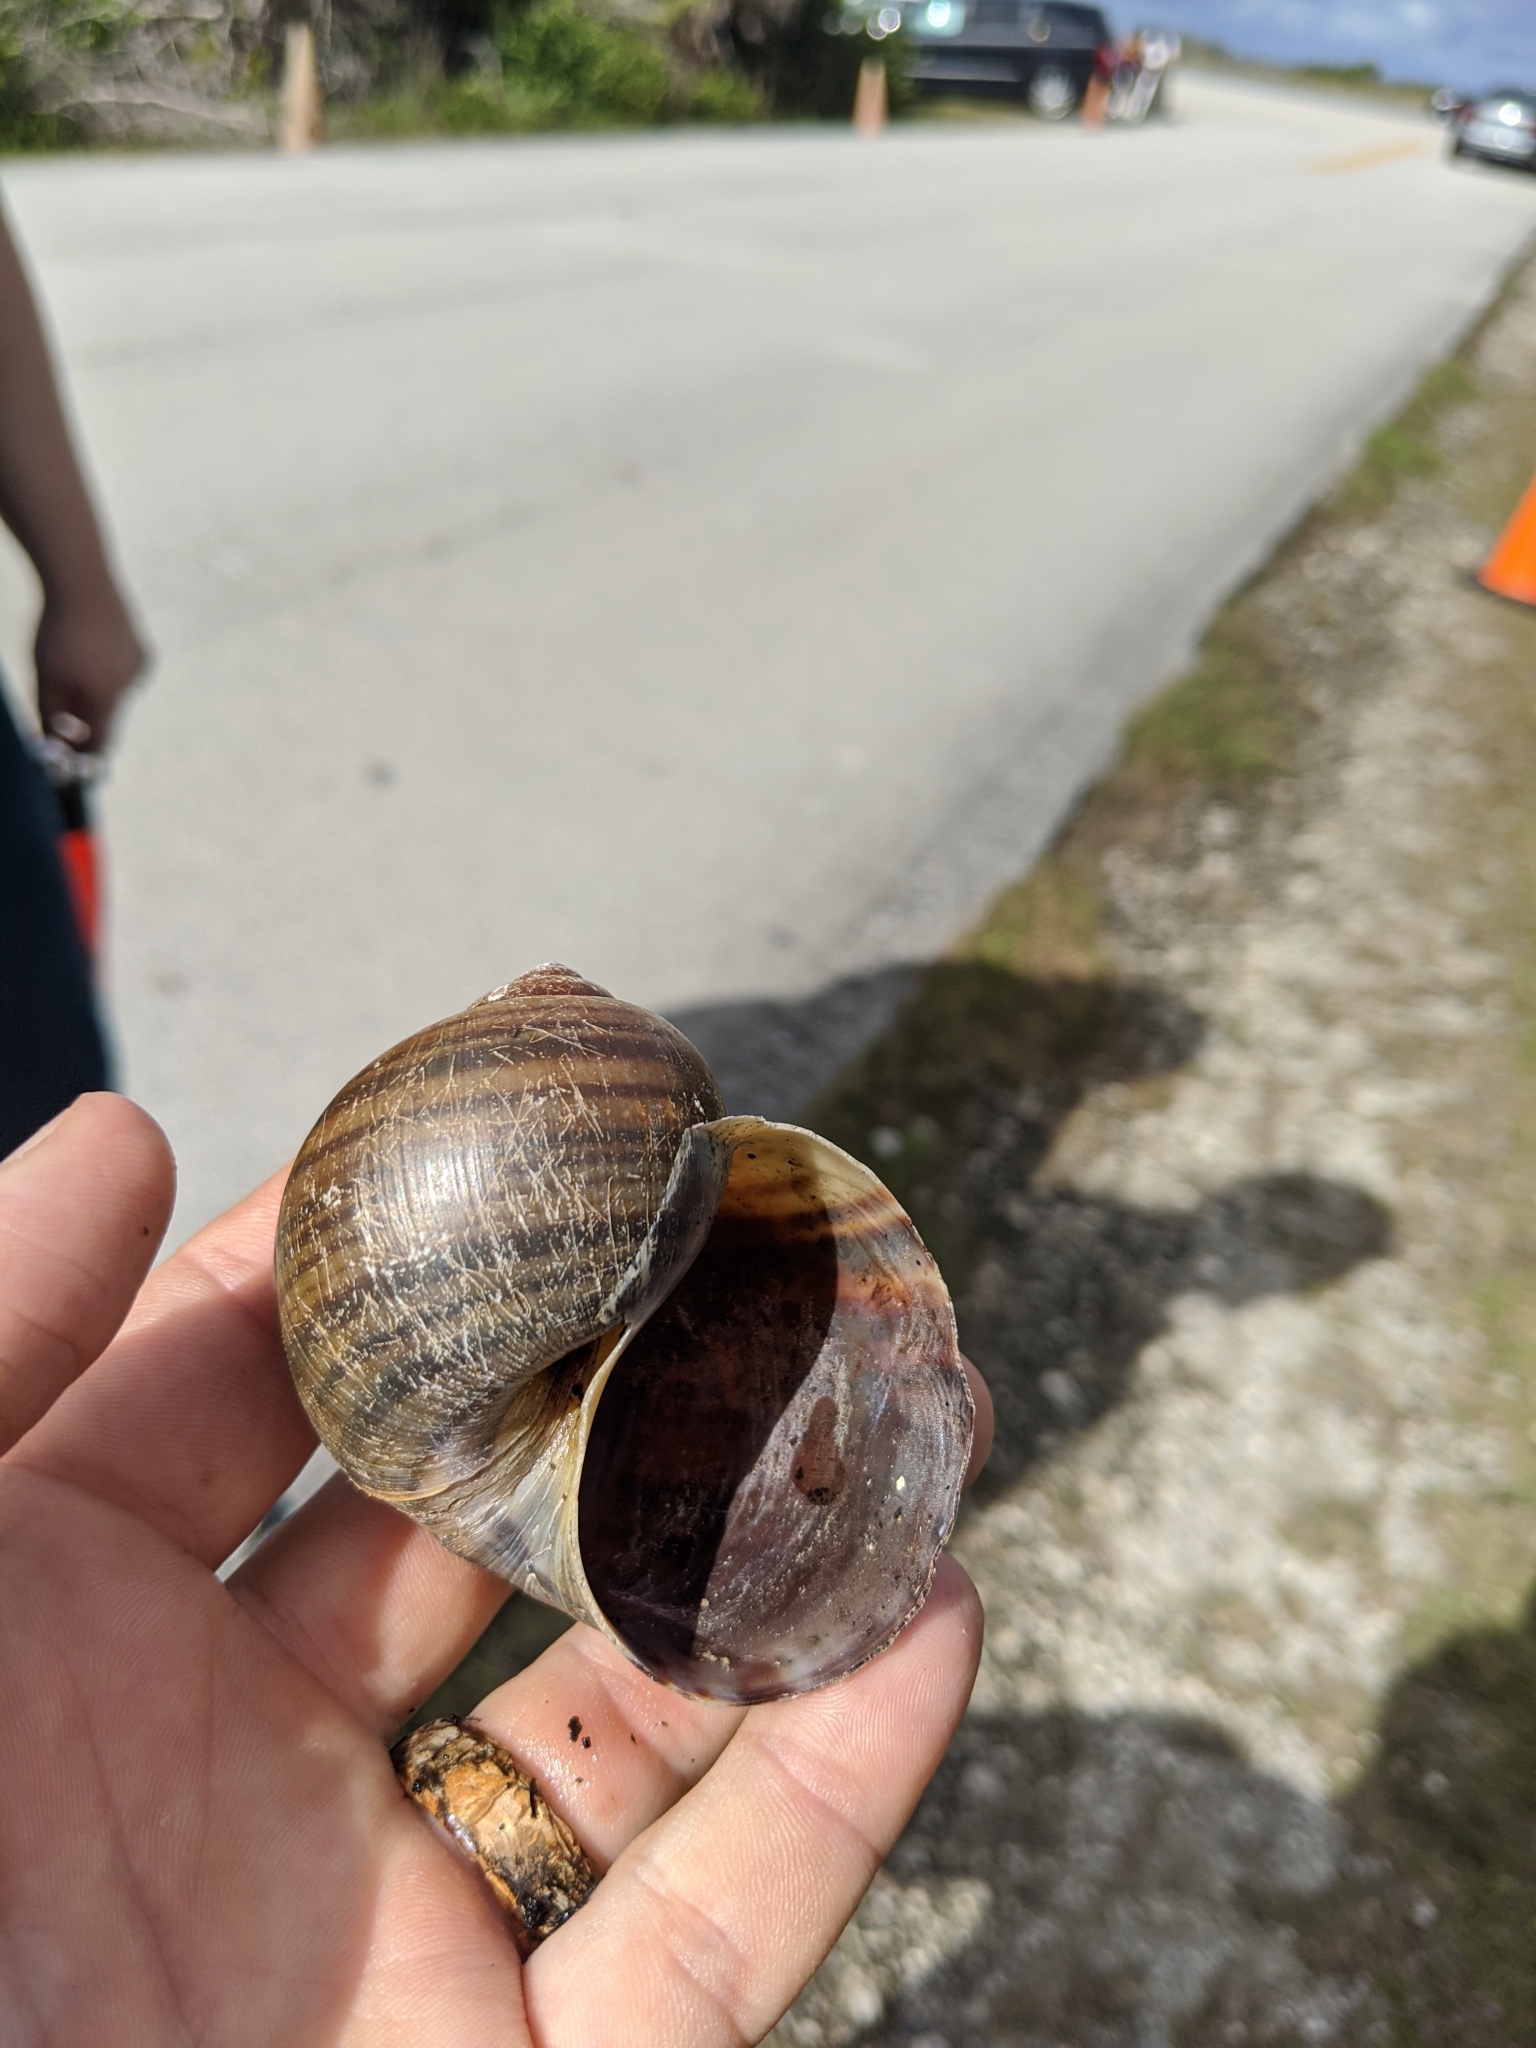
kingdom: Animalia
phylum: Mollusca
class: Gastropoda
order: Architaenioglossa
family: Ampullariidae
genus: Pomacea
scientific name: Pomacea maculata
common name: Giant applesnail
